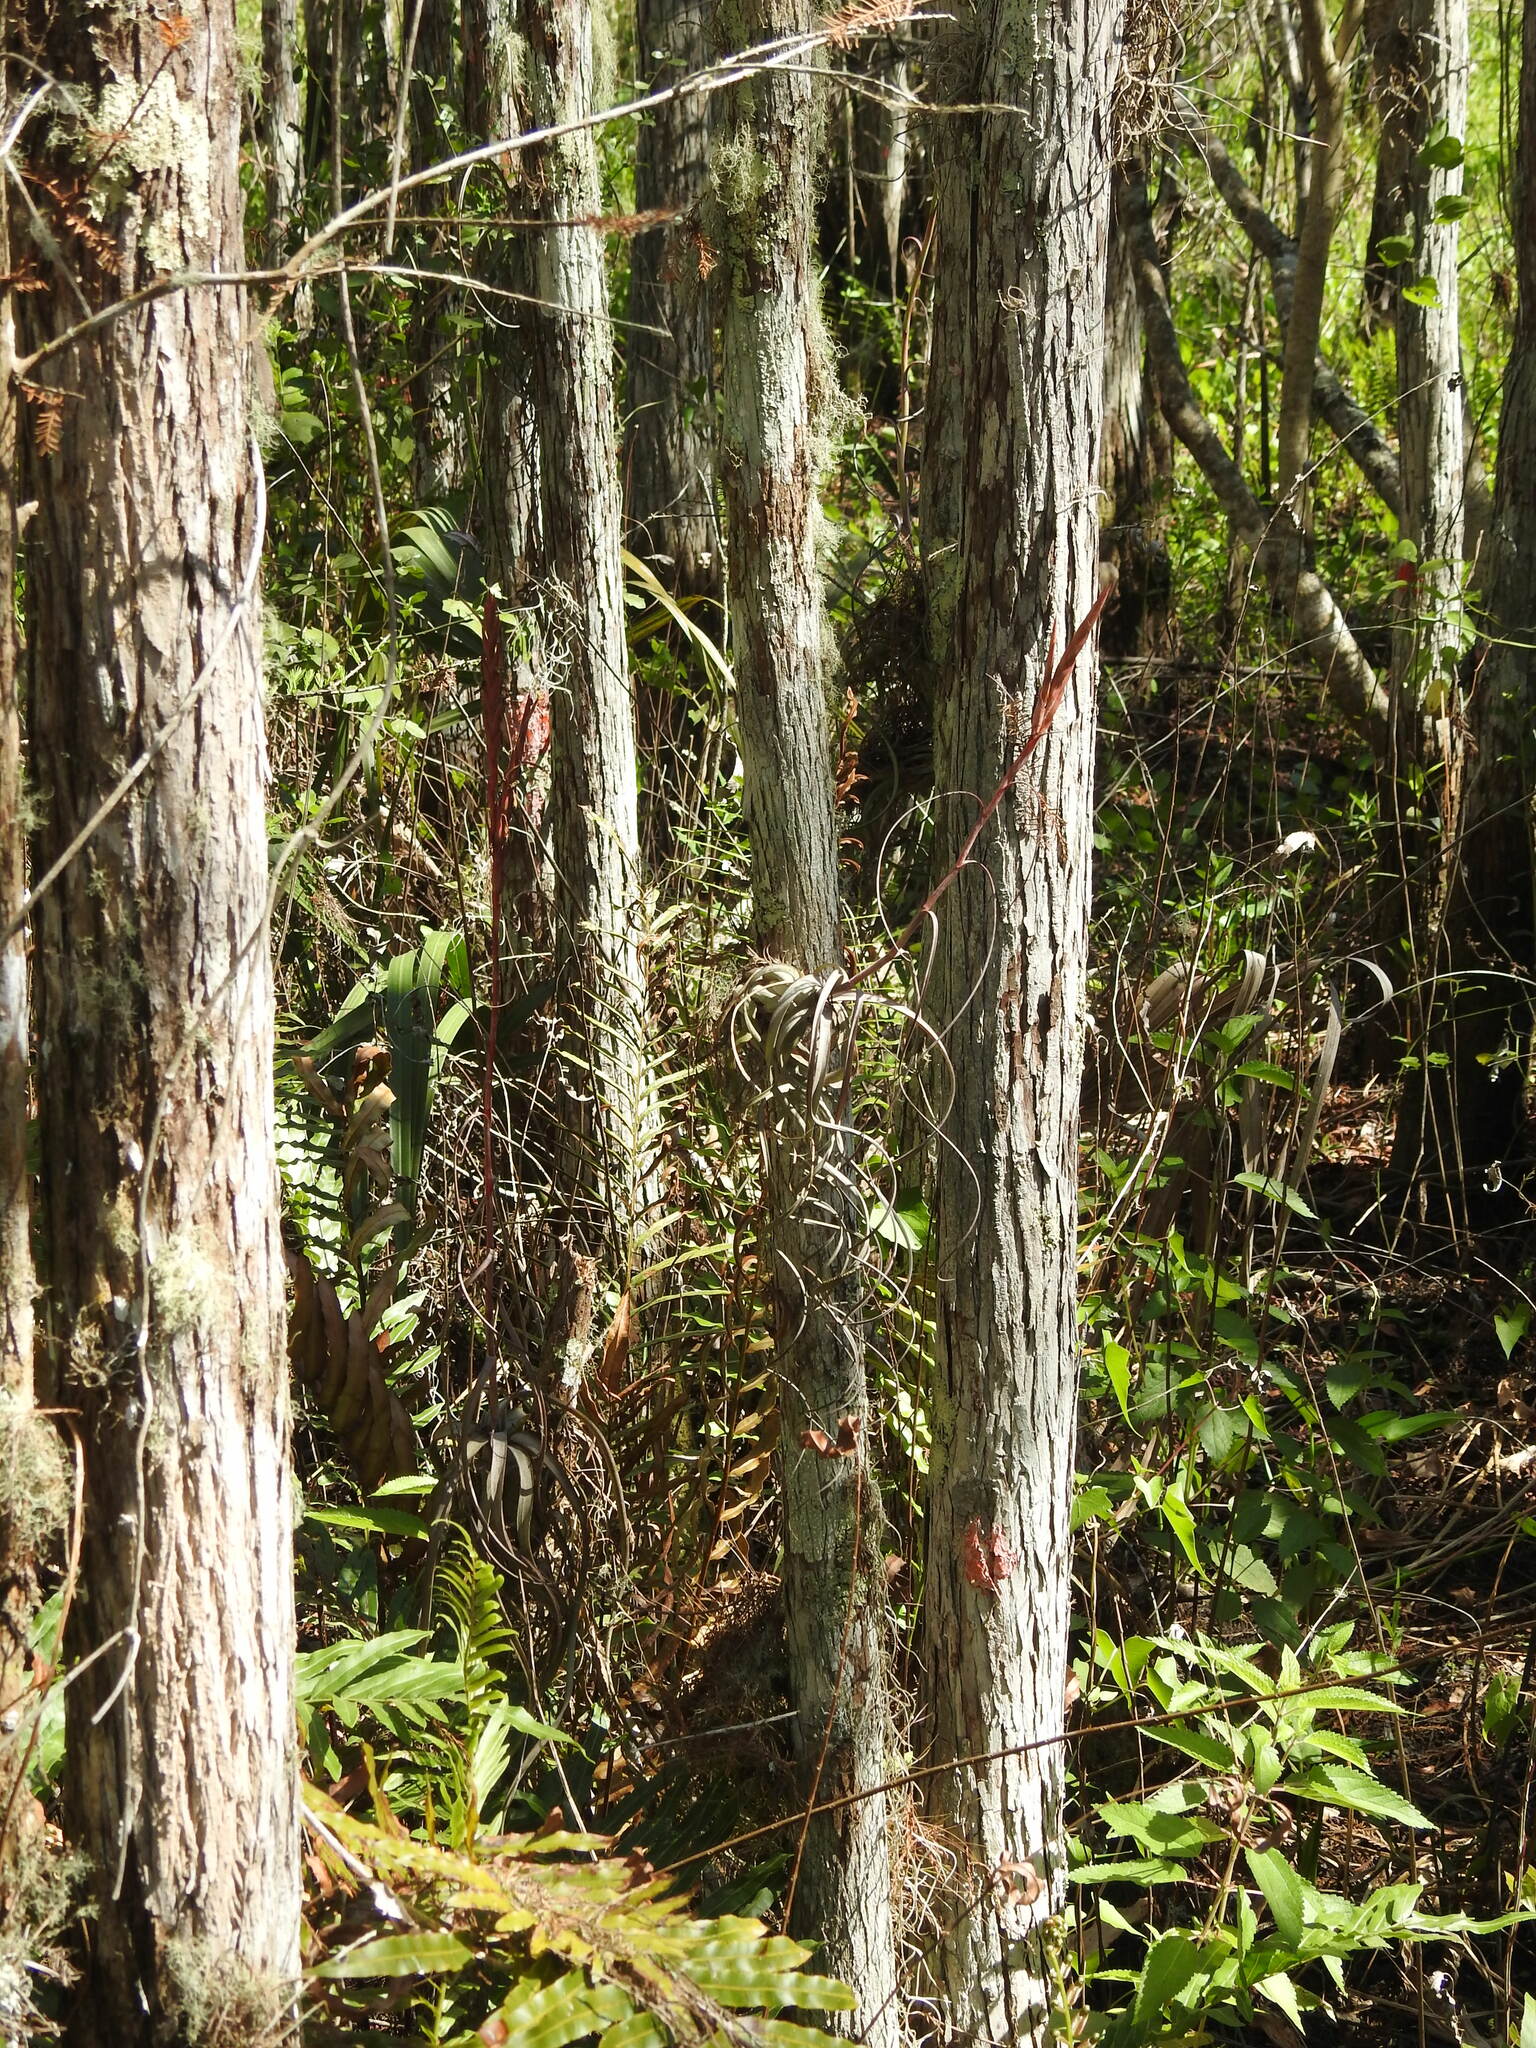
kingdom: Plantae
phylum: Tracheophyta
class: Liliopsida
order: Poales
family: Bromeliaceae
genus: Tillandsia
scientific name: Tillandsia balbisiana
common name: Northern needleleaf
